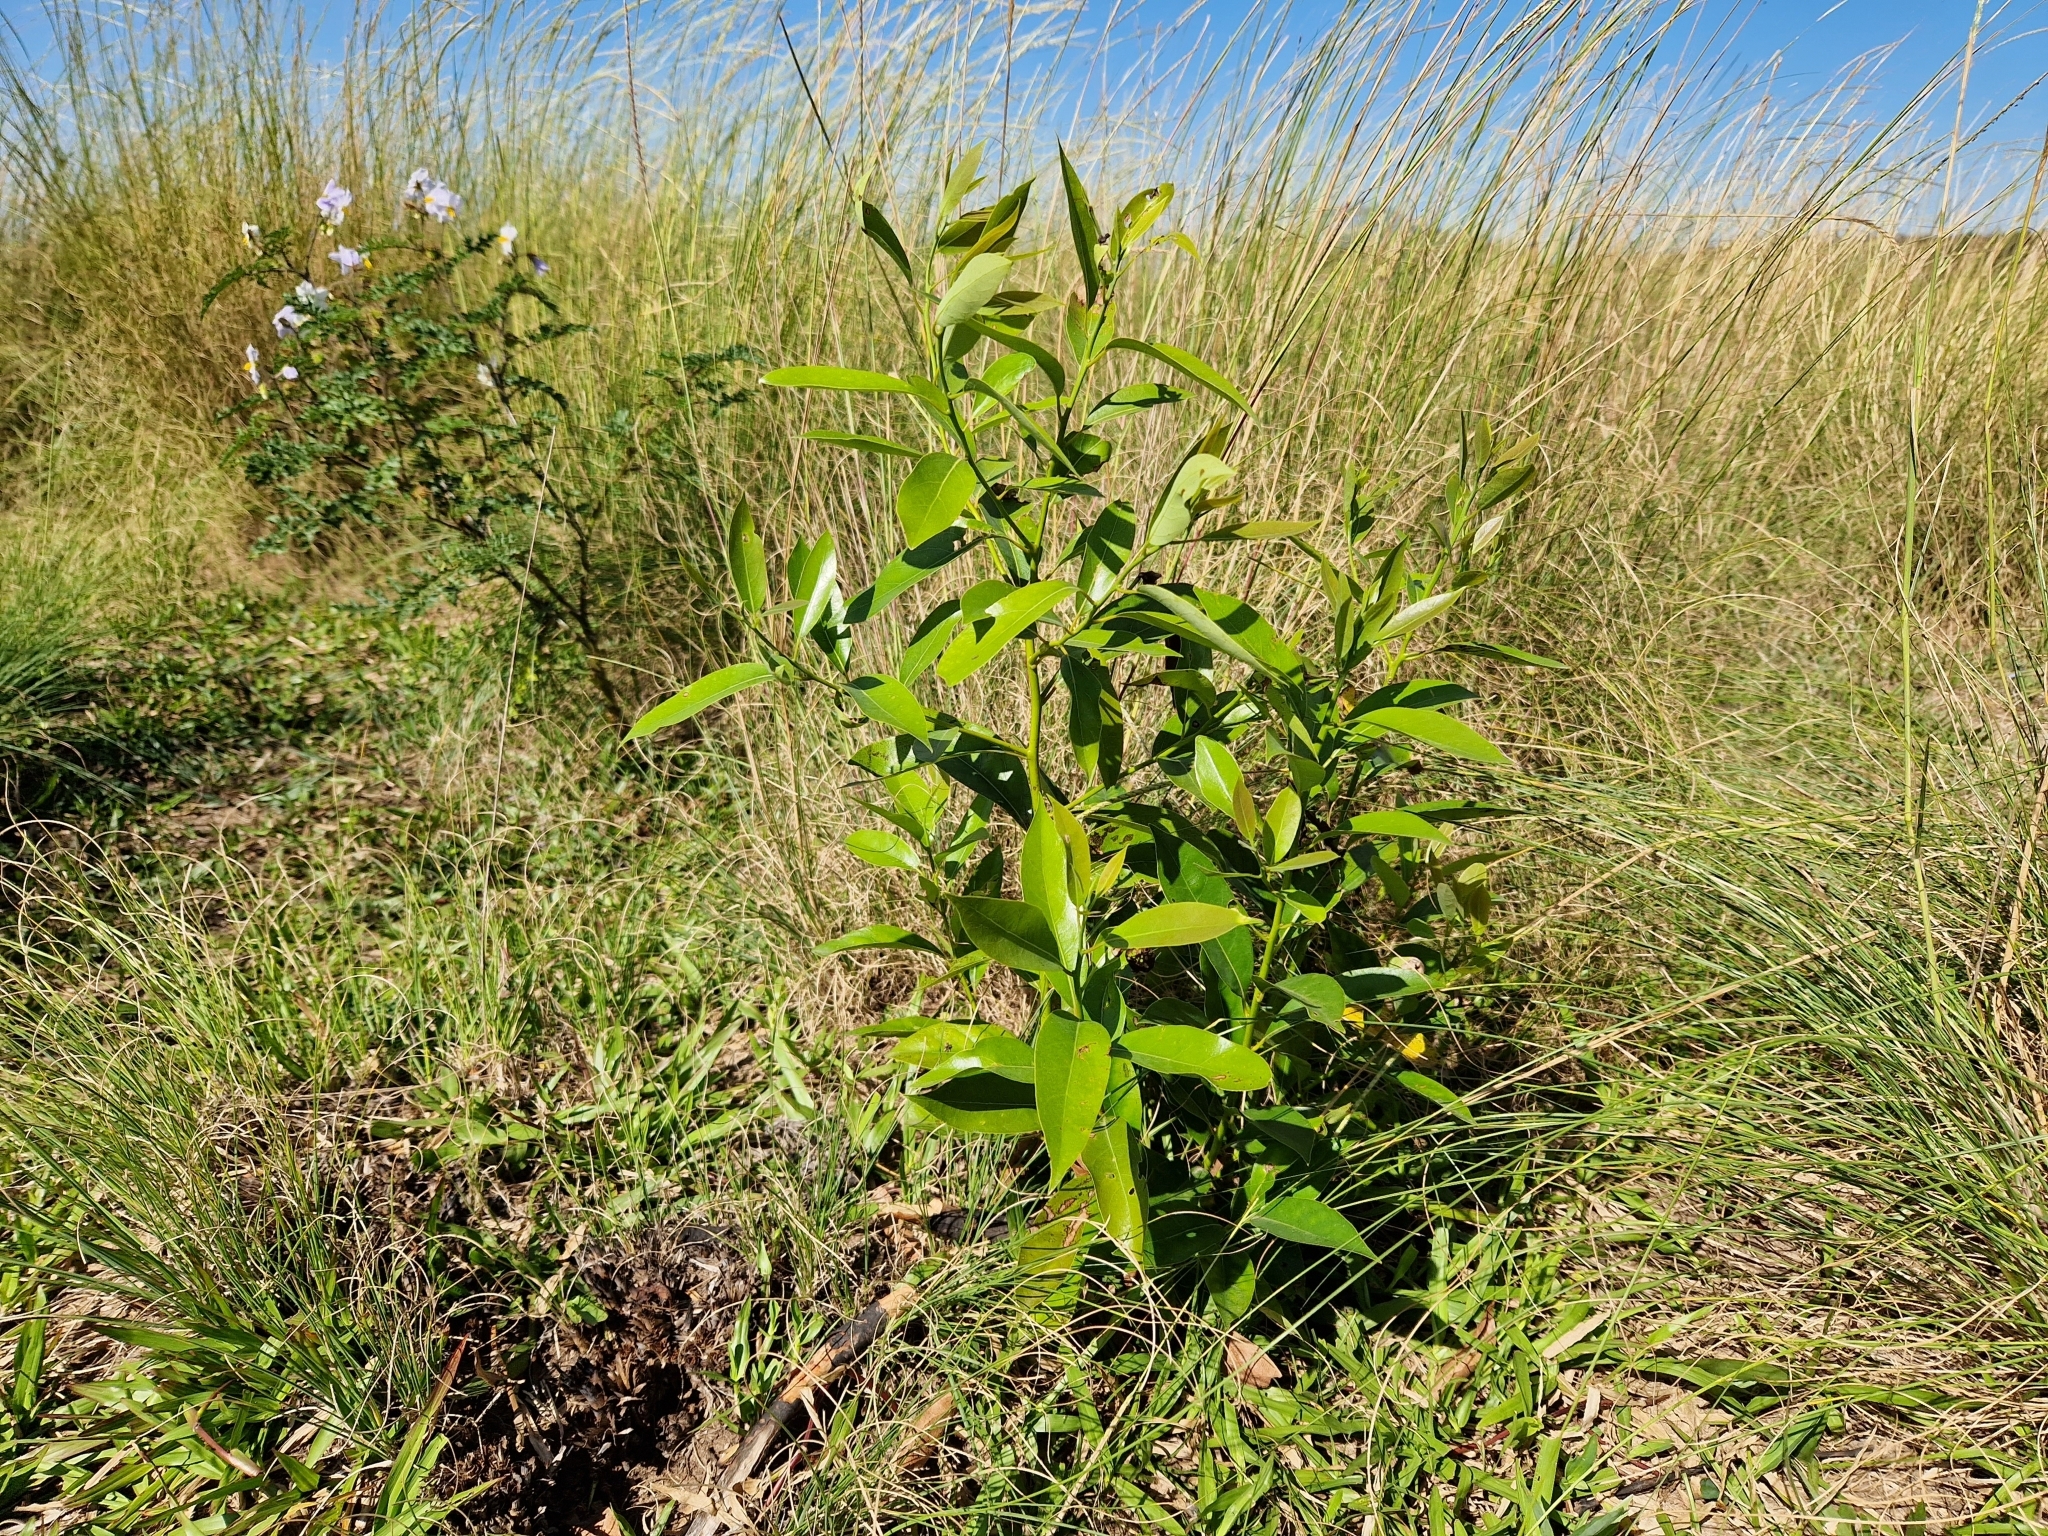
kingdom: Plantae
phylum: Tracheophyta
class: Magnoliopsida
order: Laurales
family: Lauraceae
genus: Ocotea
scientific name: Ocotea acutifolia
